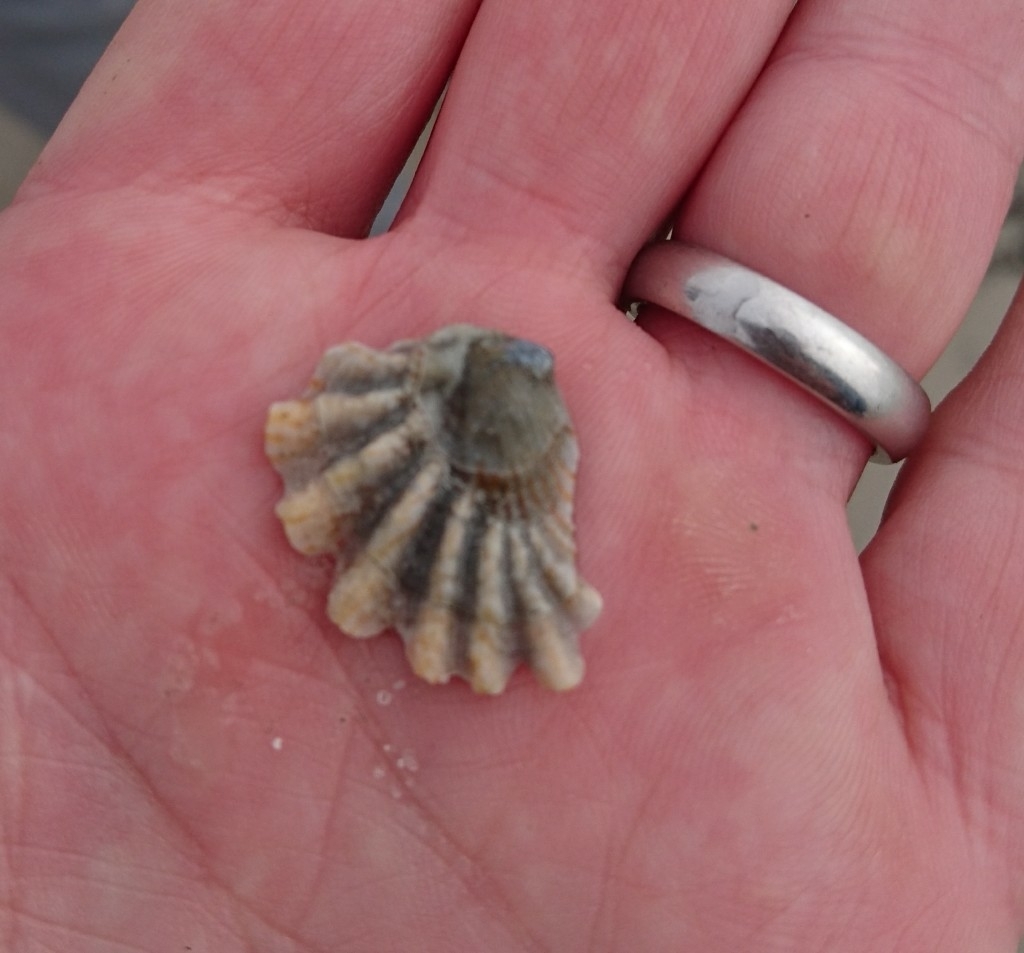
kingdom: Animalia
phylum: Mollusca
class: Bivalvia
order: Pectinida
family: Plicatulidae
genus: Plicatula
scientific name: Plicatula gibbosa
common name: Atlantic kitten's paw
